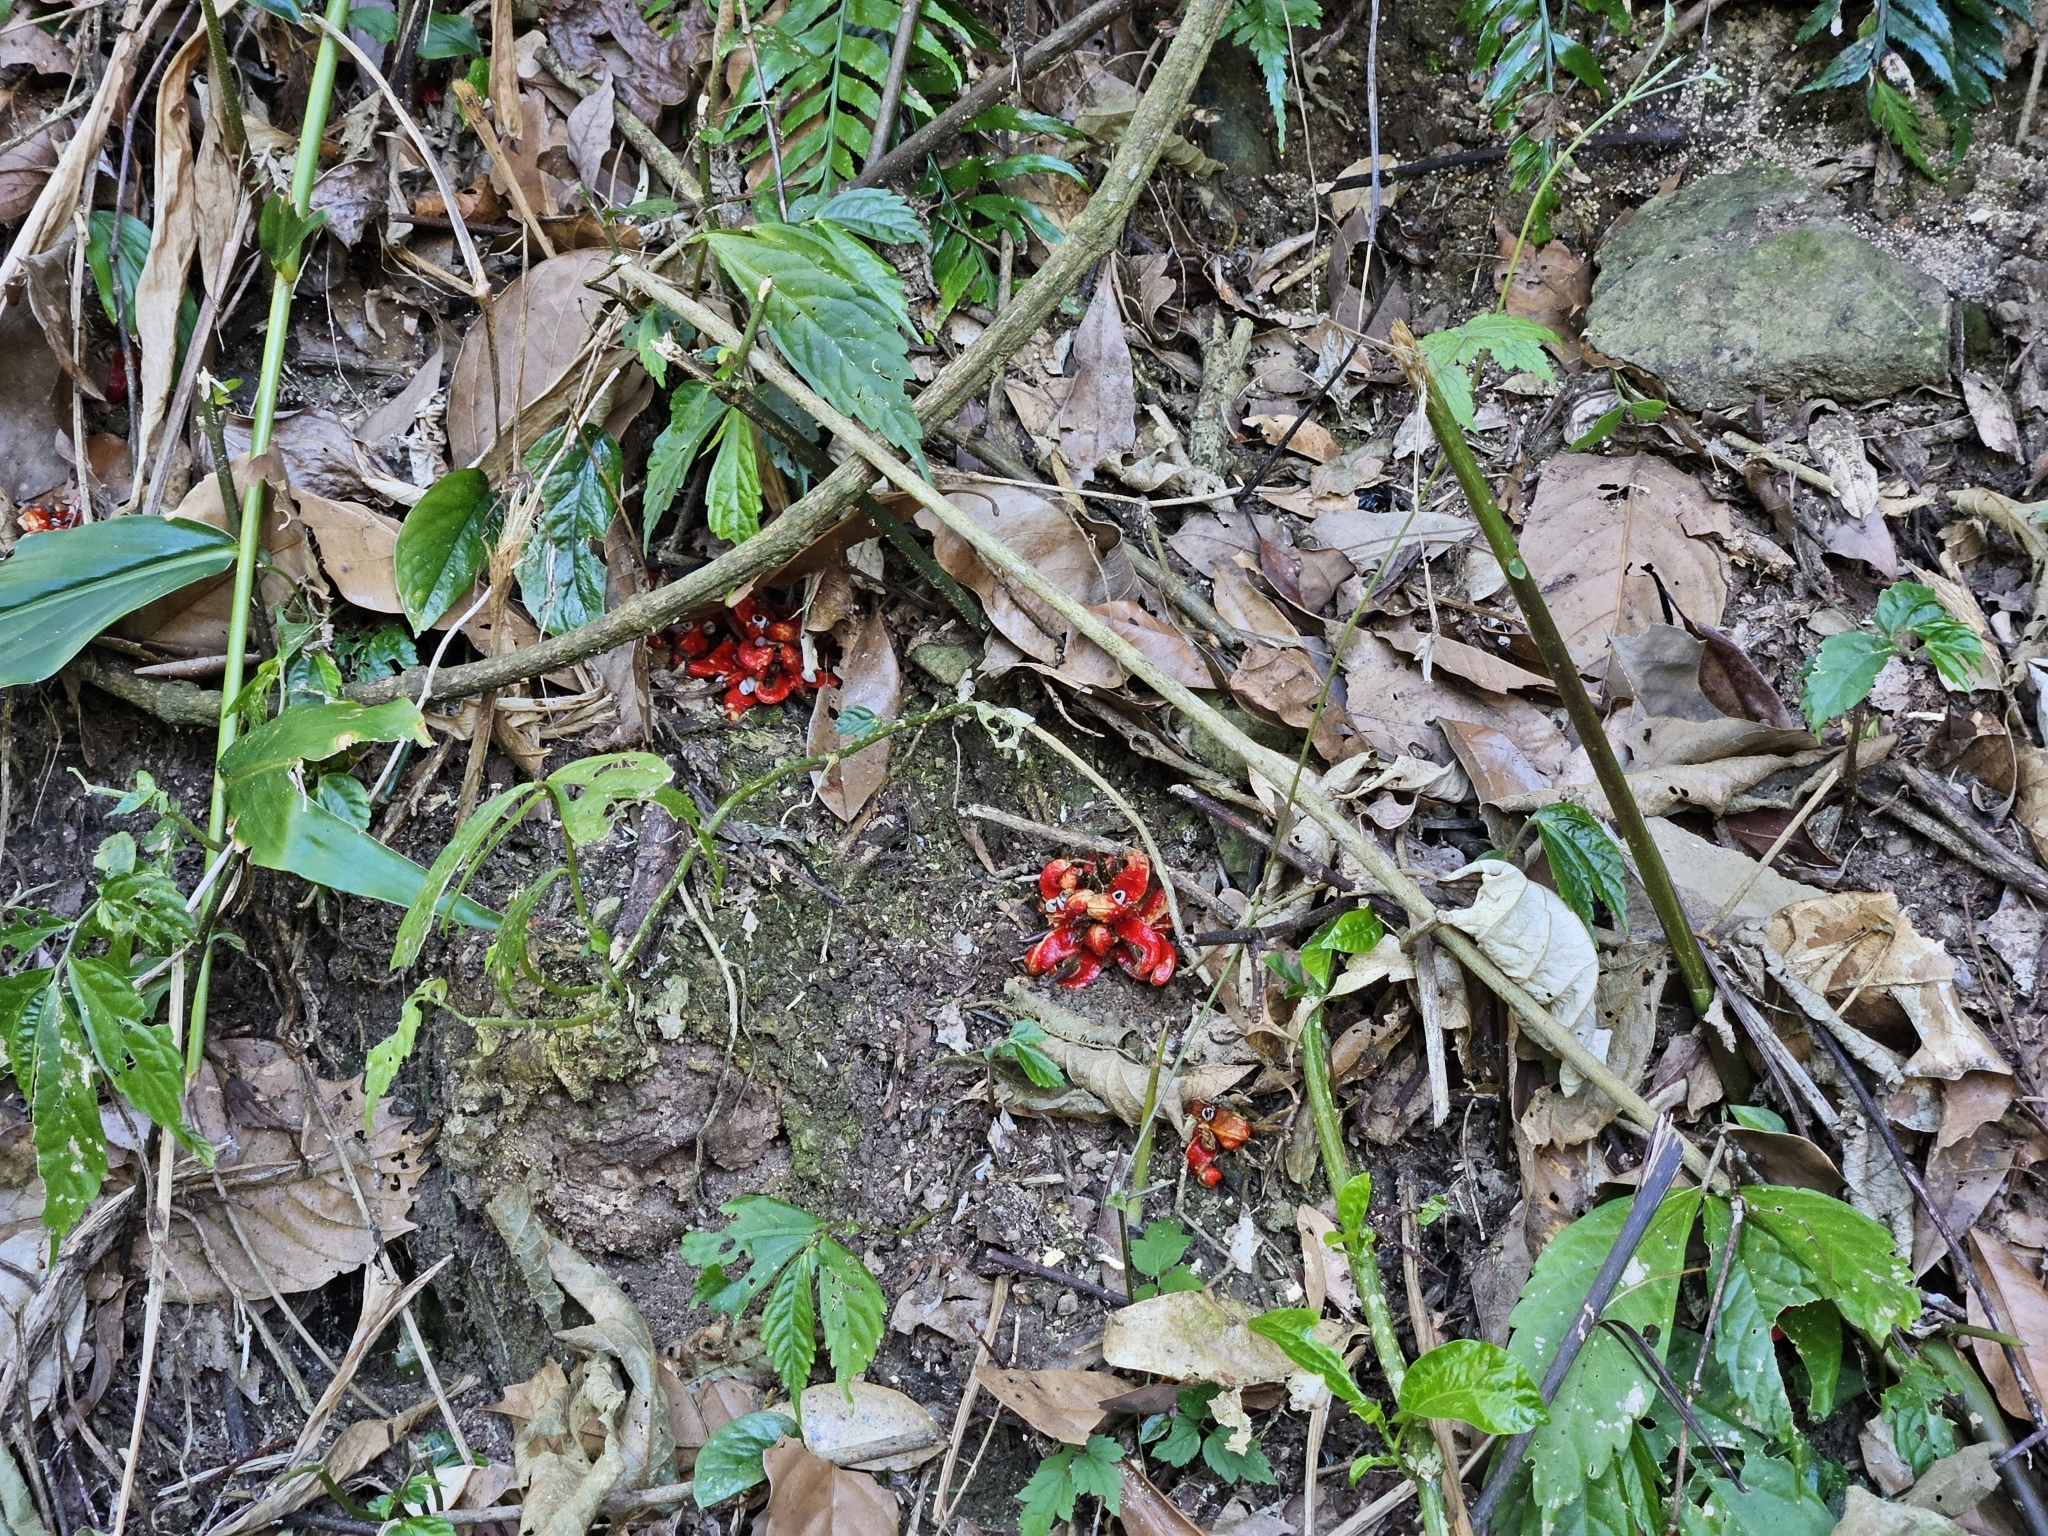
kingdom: Plantae
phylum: Tracheophyta
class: Liliopsida
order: Zingiberales
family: Zingiberaceae
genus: Zingiber
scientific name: Zingiber kawagoii
